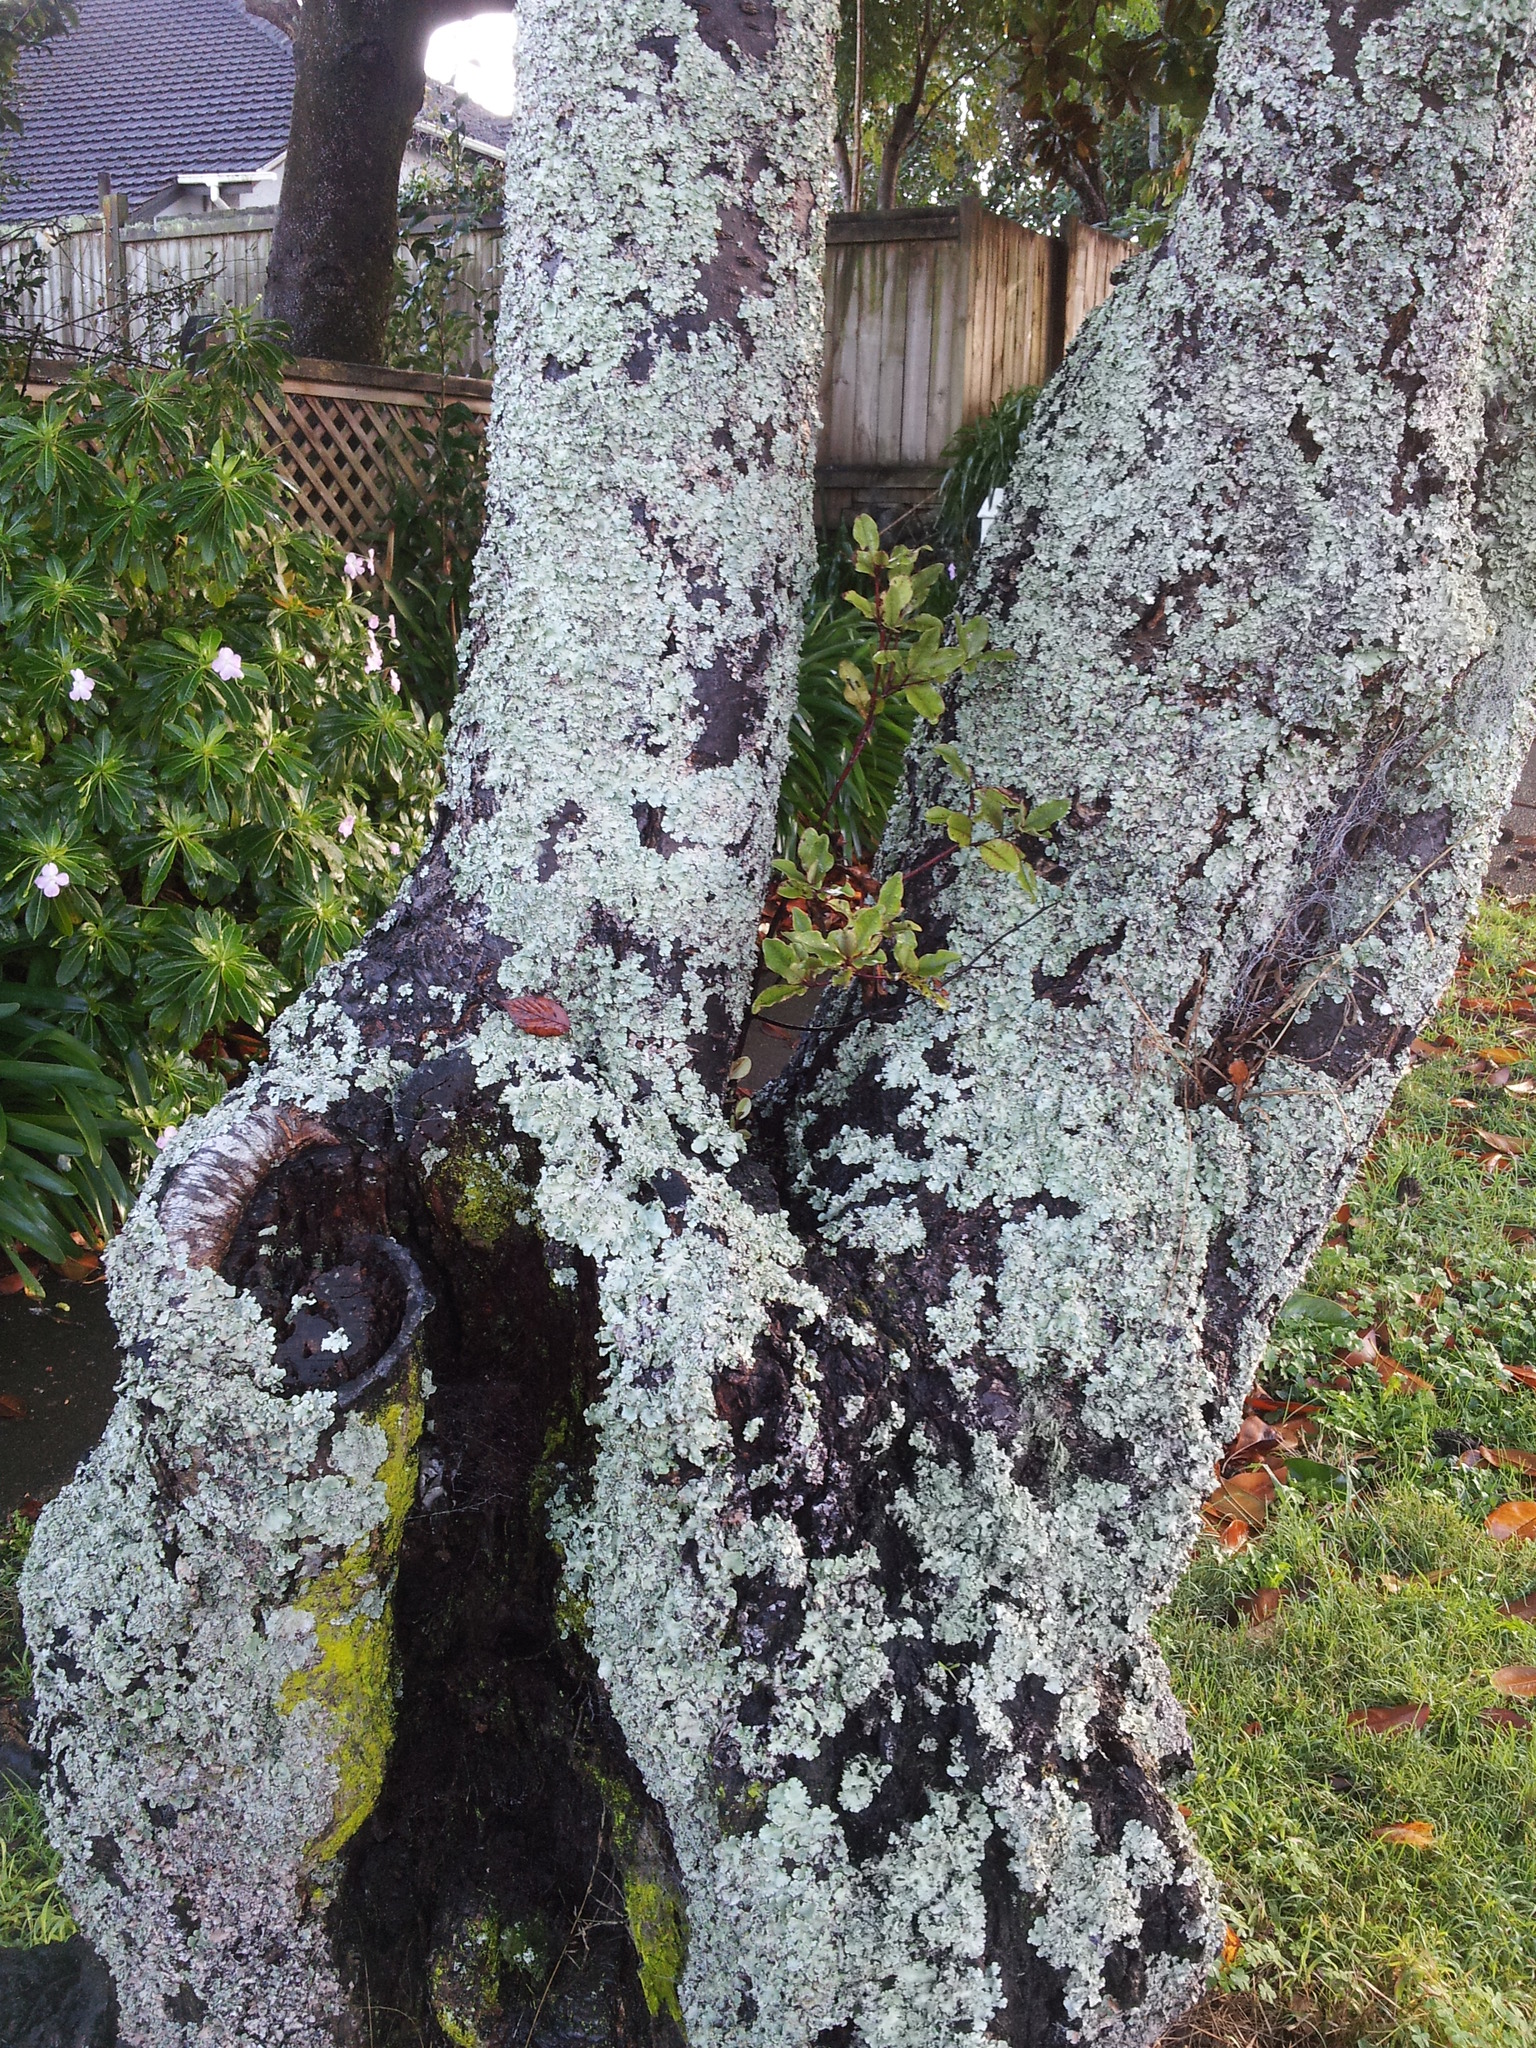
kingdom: Plantae
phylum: Tracheophyta
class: Magnoliopsida
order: Ericales
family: Primulaceae
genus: Myrsine
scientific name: Myrsine australis
